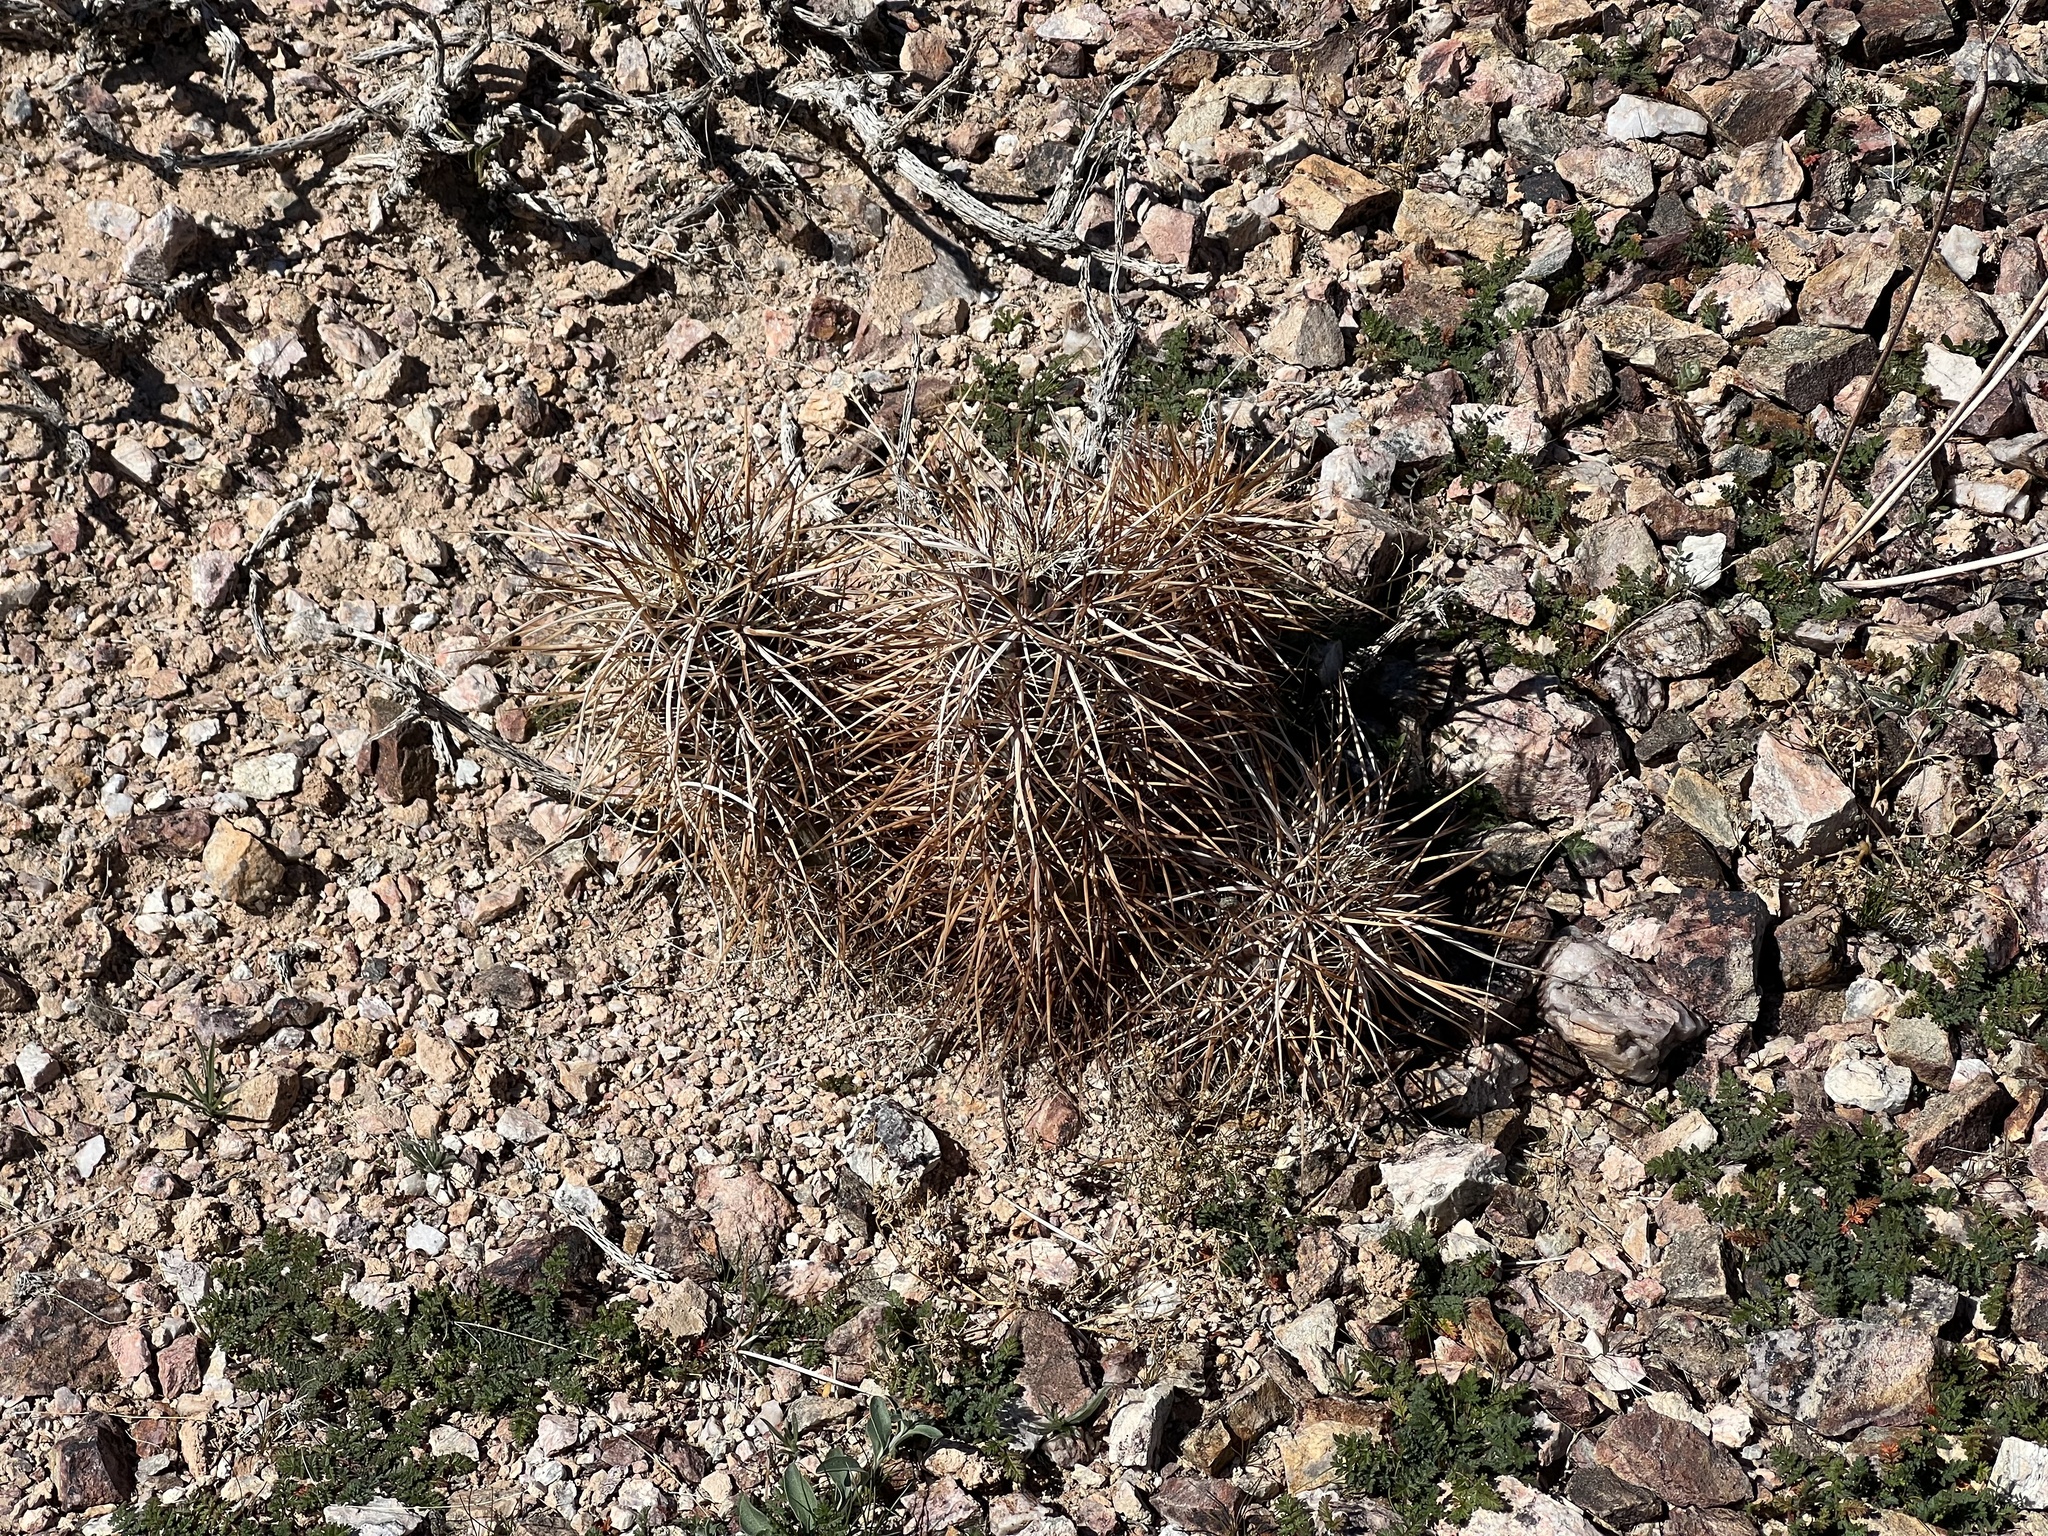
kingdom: Plantae
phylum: Tracheophyta
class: Magnoliopsida
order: Caryophyllales
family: Cactaceae
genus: Echinocereus
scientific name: Echinocereus engelmannii
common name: Engelmann's hedgehog cactus
